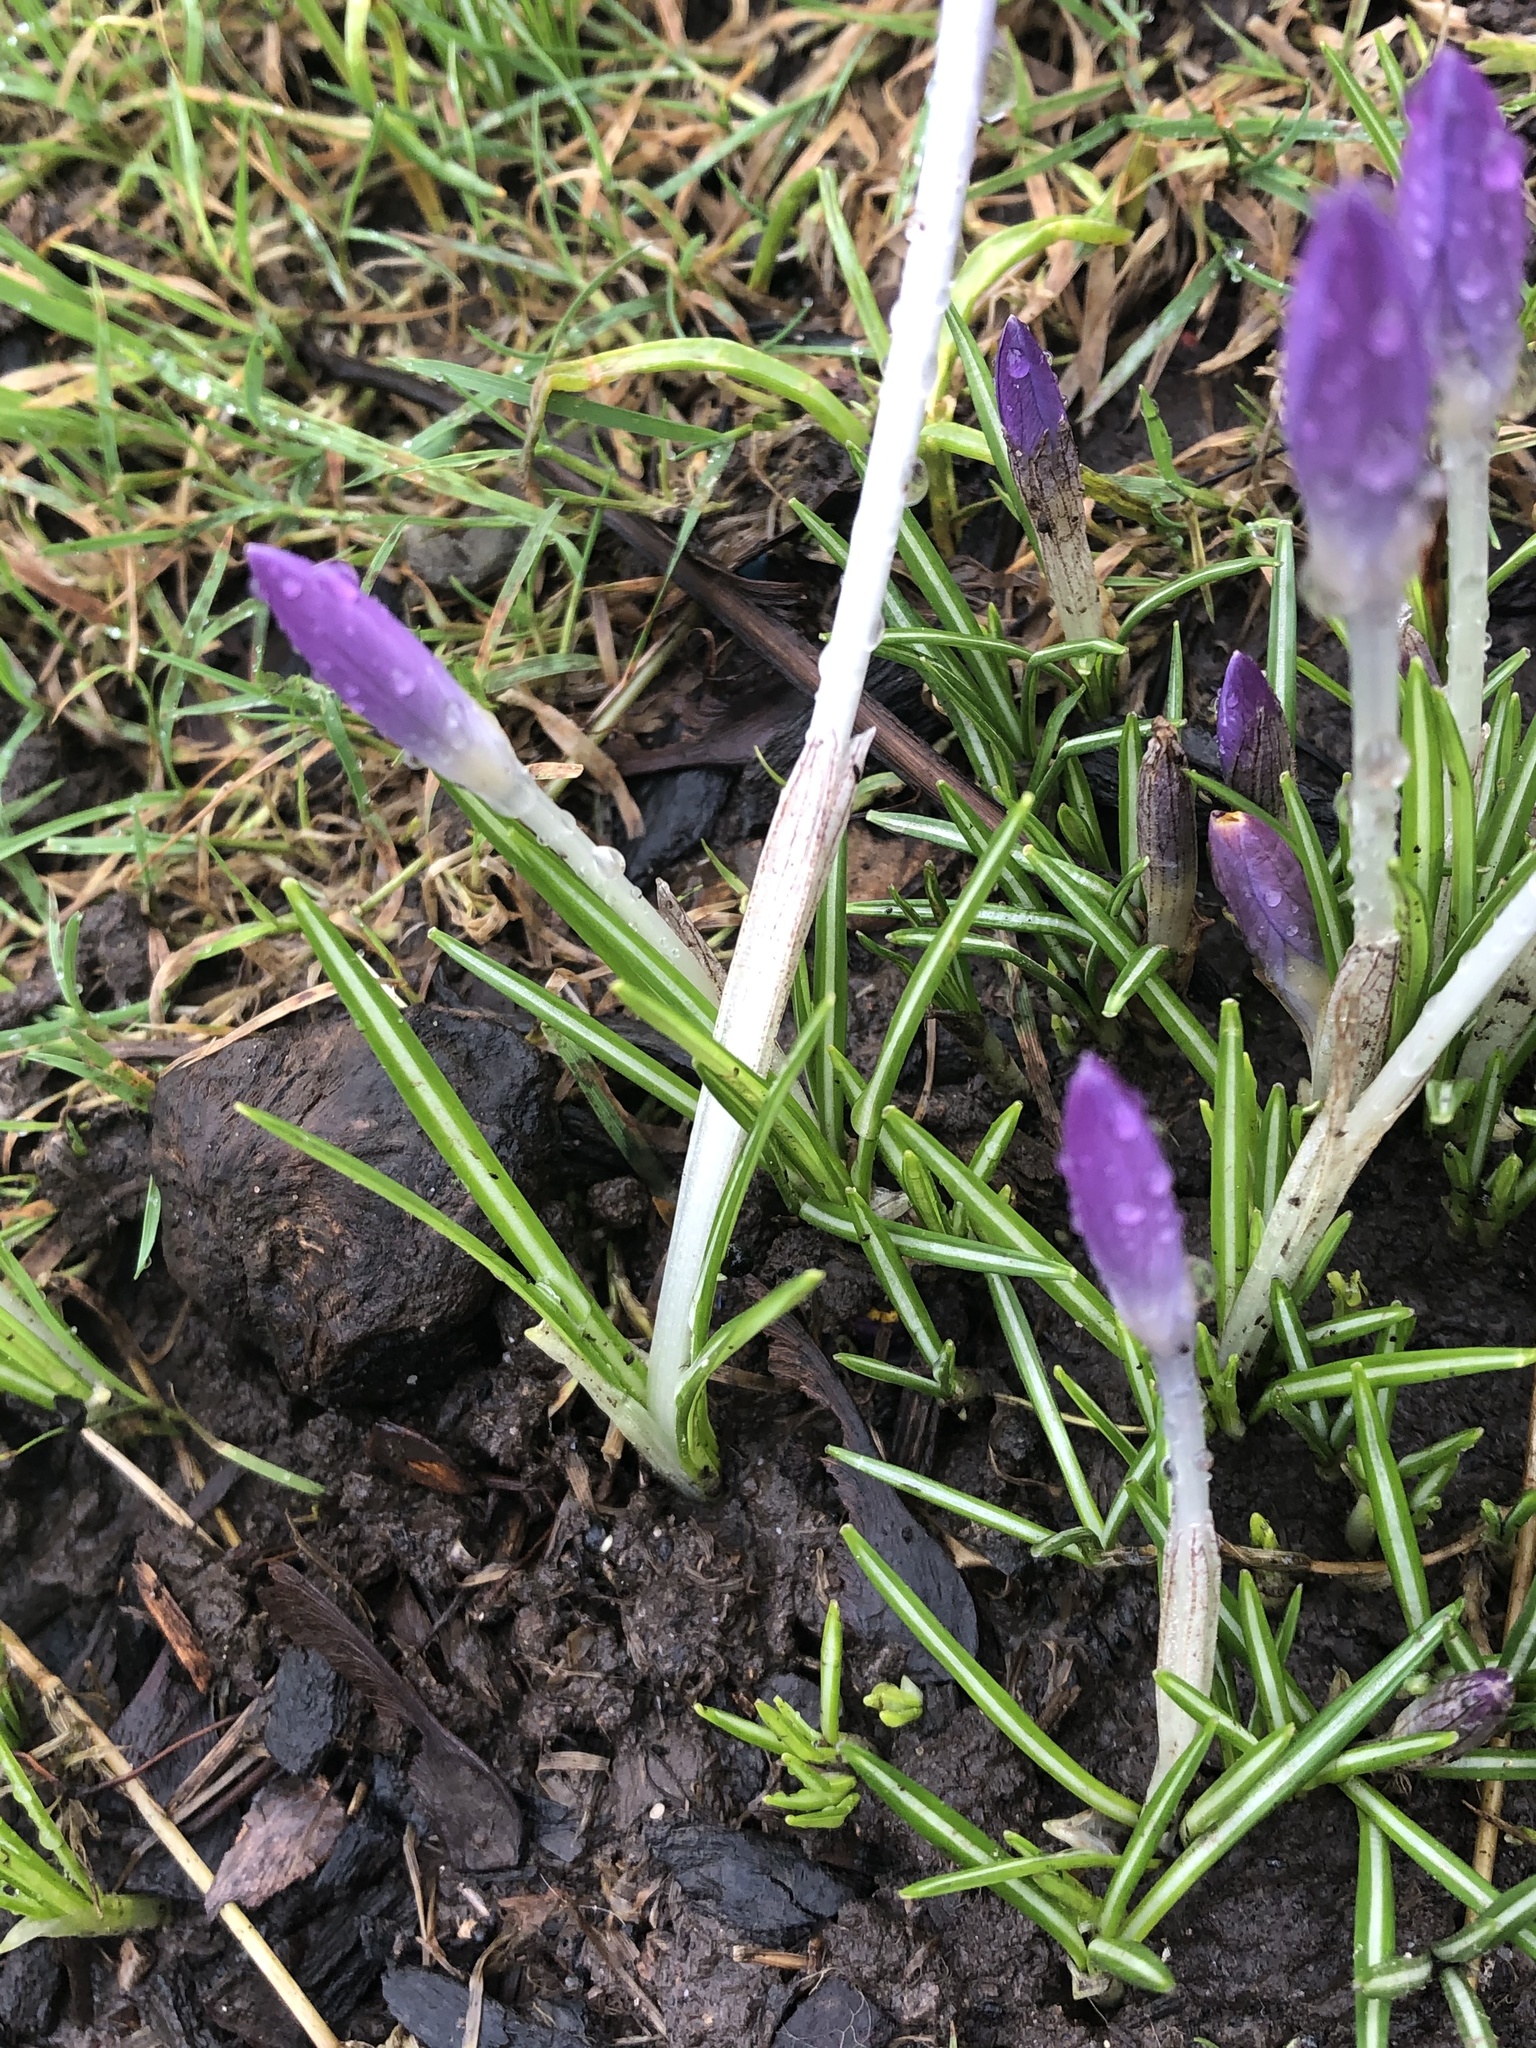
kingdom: Plantae
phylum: Tracheophyta
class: Liliopsida
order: Asparagales
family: Iridaceae
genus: Crocus
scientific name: Crocus tommasinianus
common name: Early crocus
